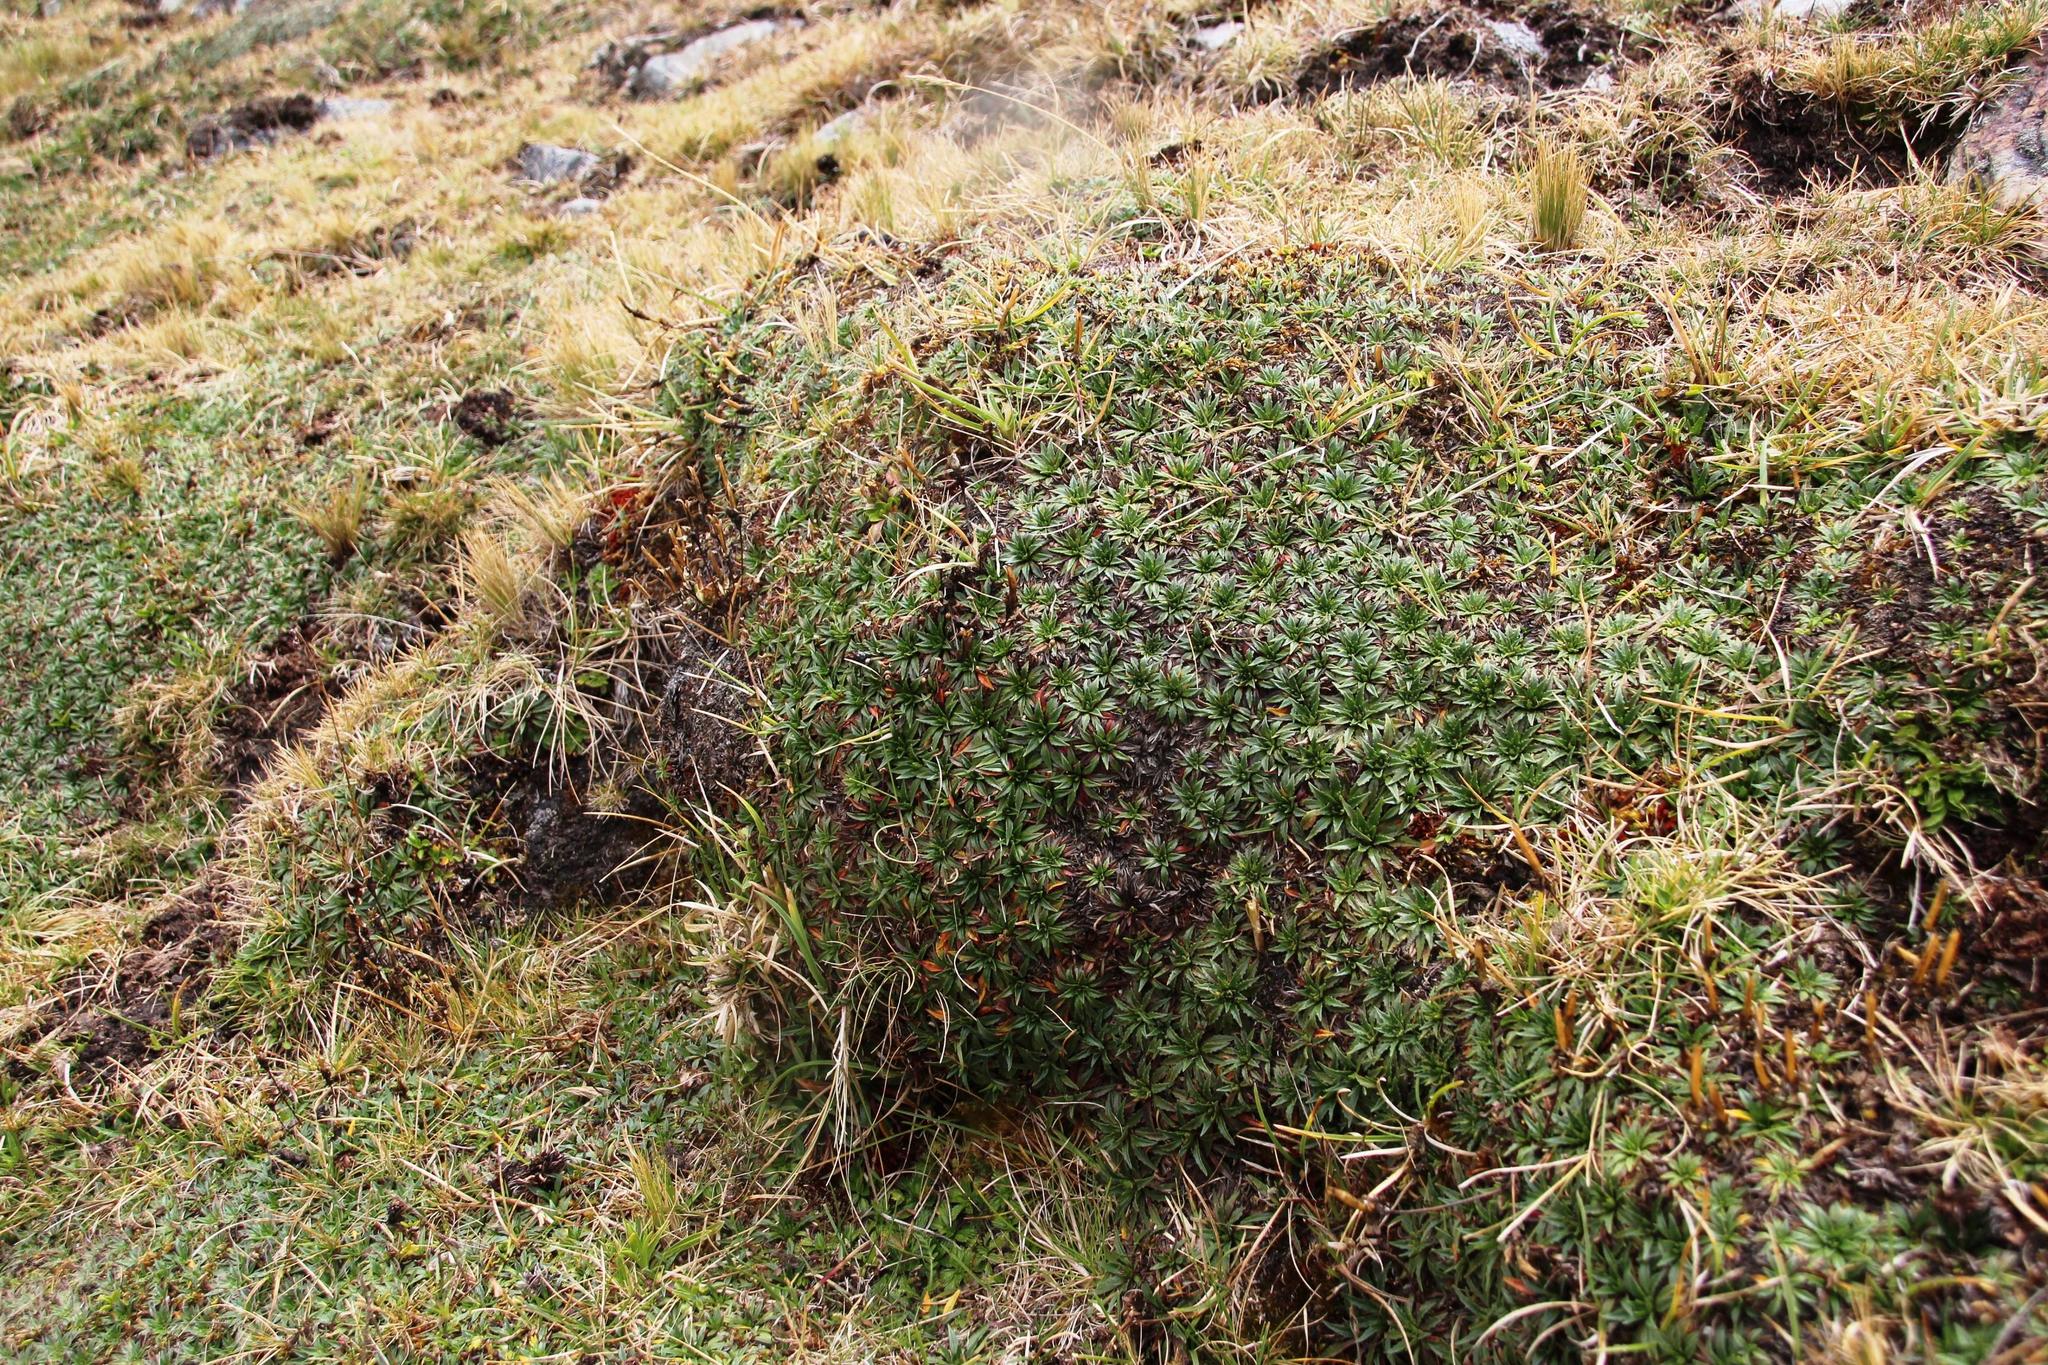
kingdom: Plantae
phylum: Tracheophyta
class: Magnoliopsida
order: Lamiales
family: Plantaginaceae
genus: Plantago
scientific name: Plantago rigida
